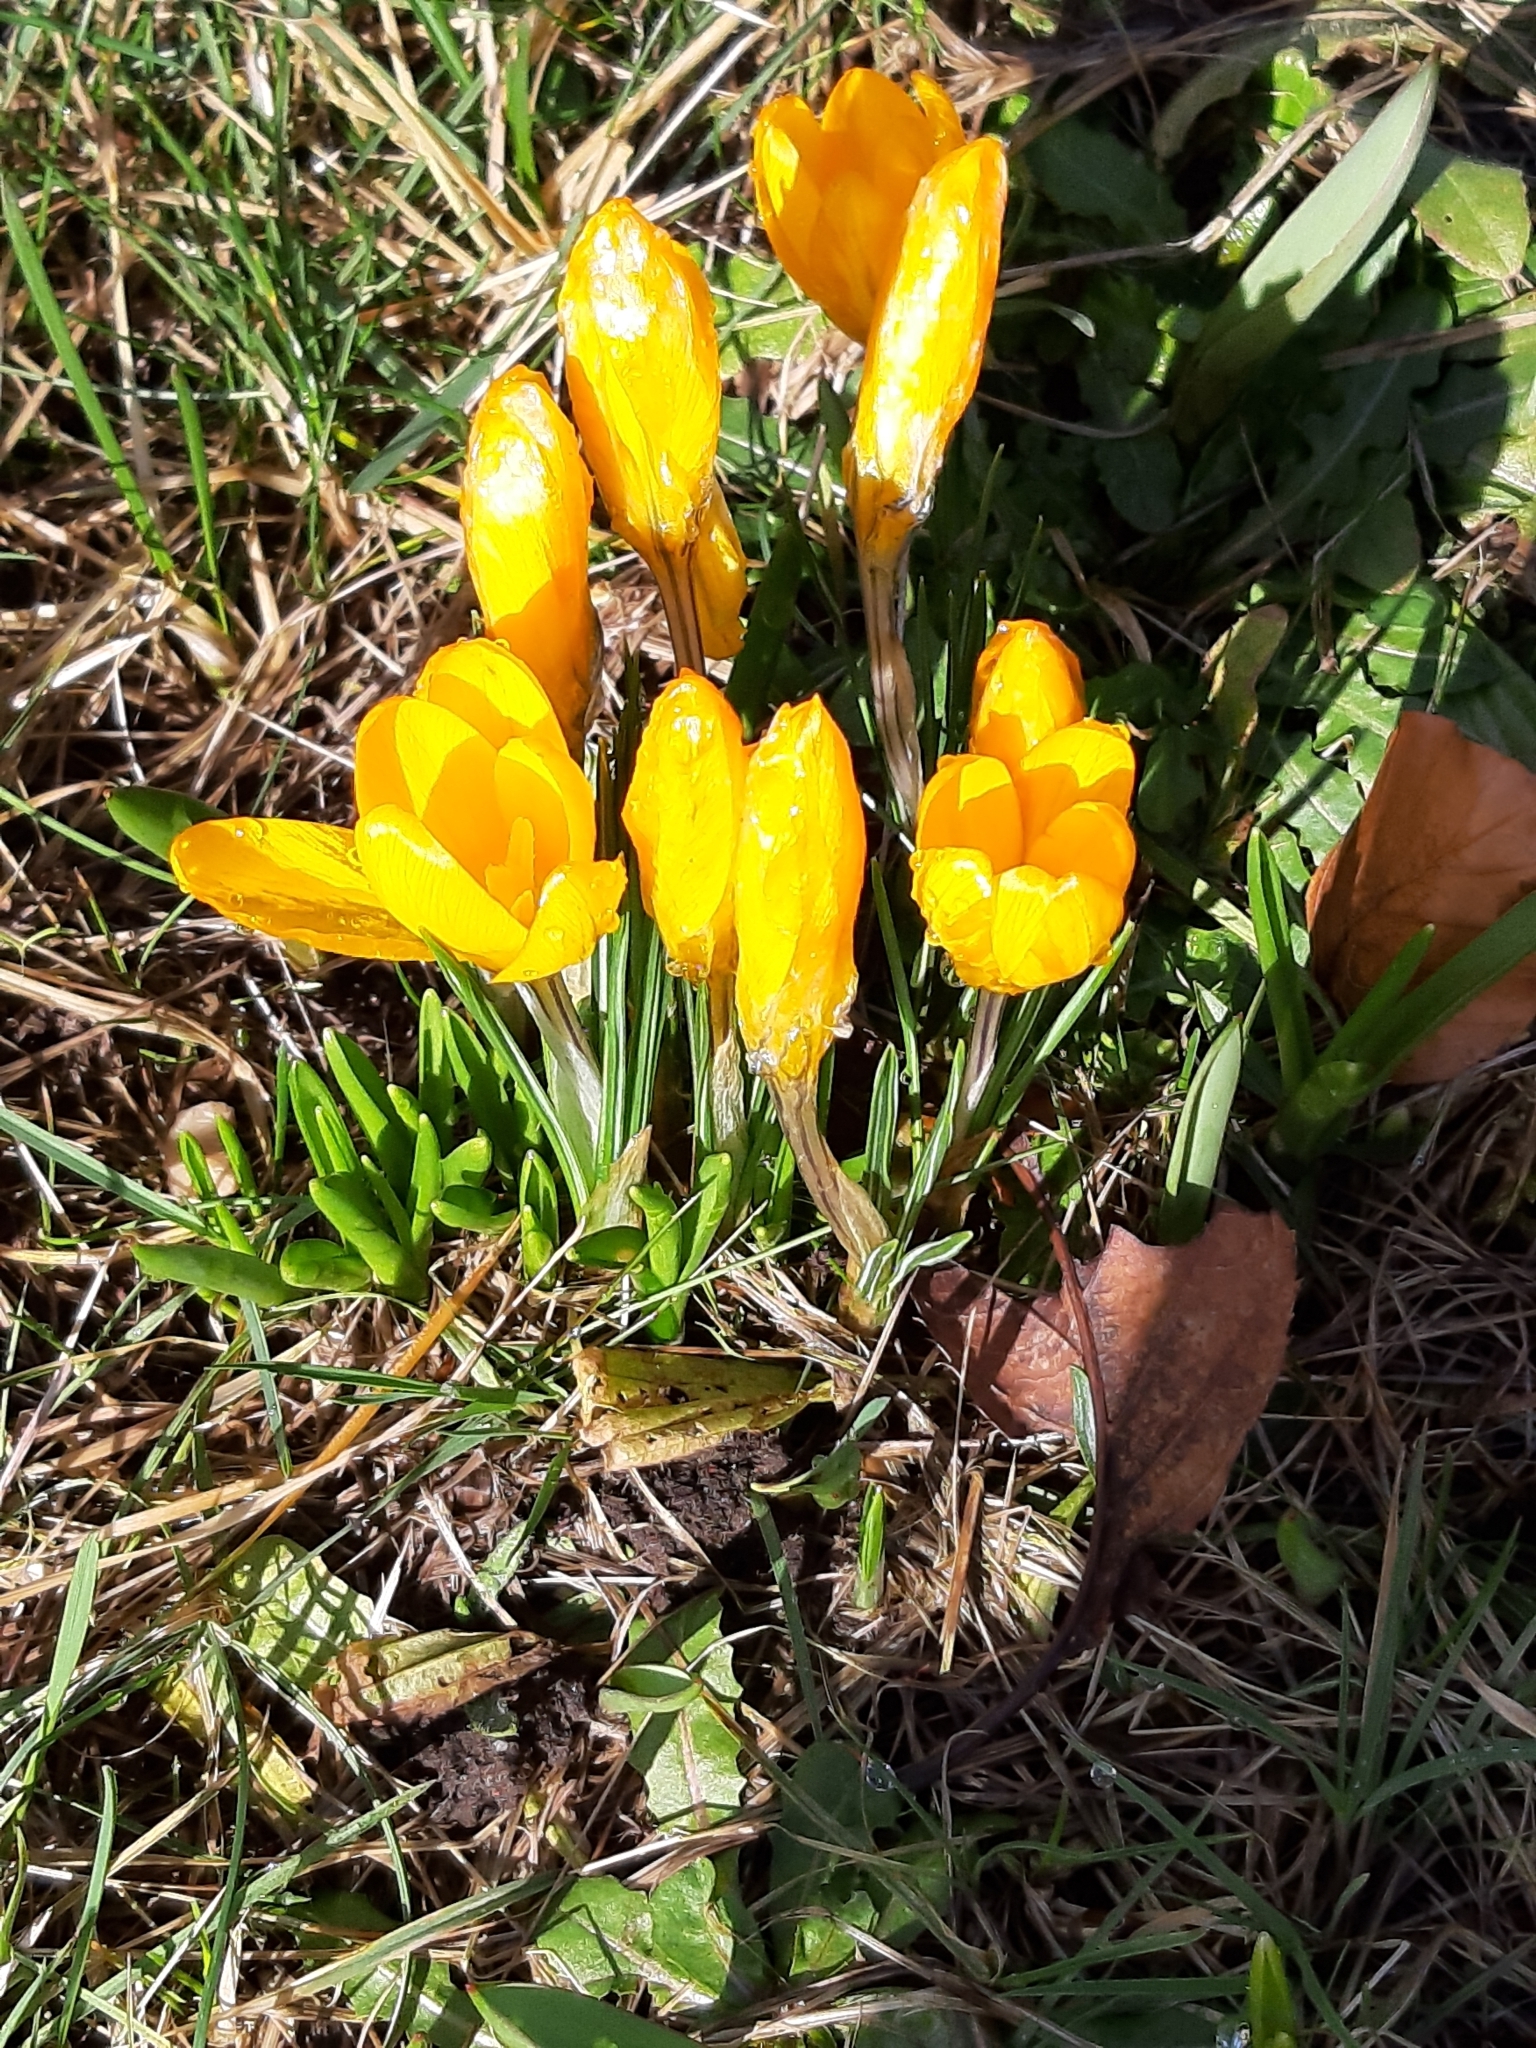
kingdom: Plantae
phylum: Tracheophyta
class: Liliopsida
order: Asparagales
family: Iridaceae
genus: Crocus
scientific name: Crocus luteus
